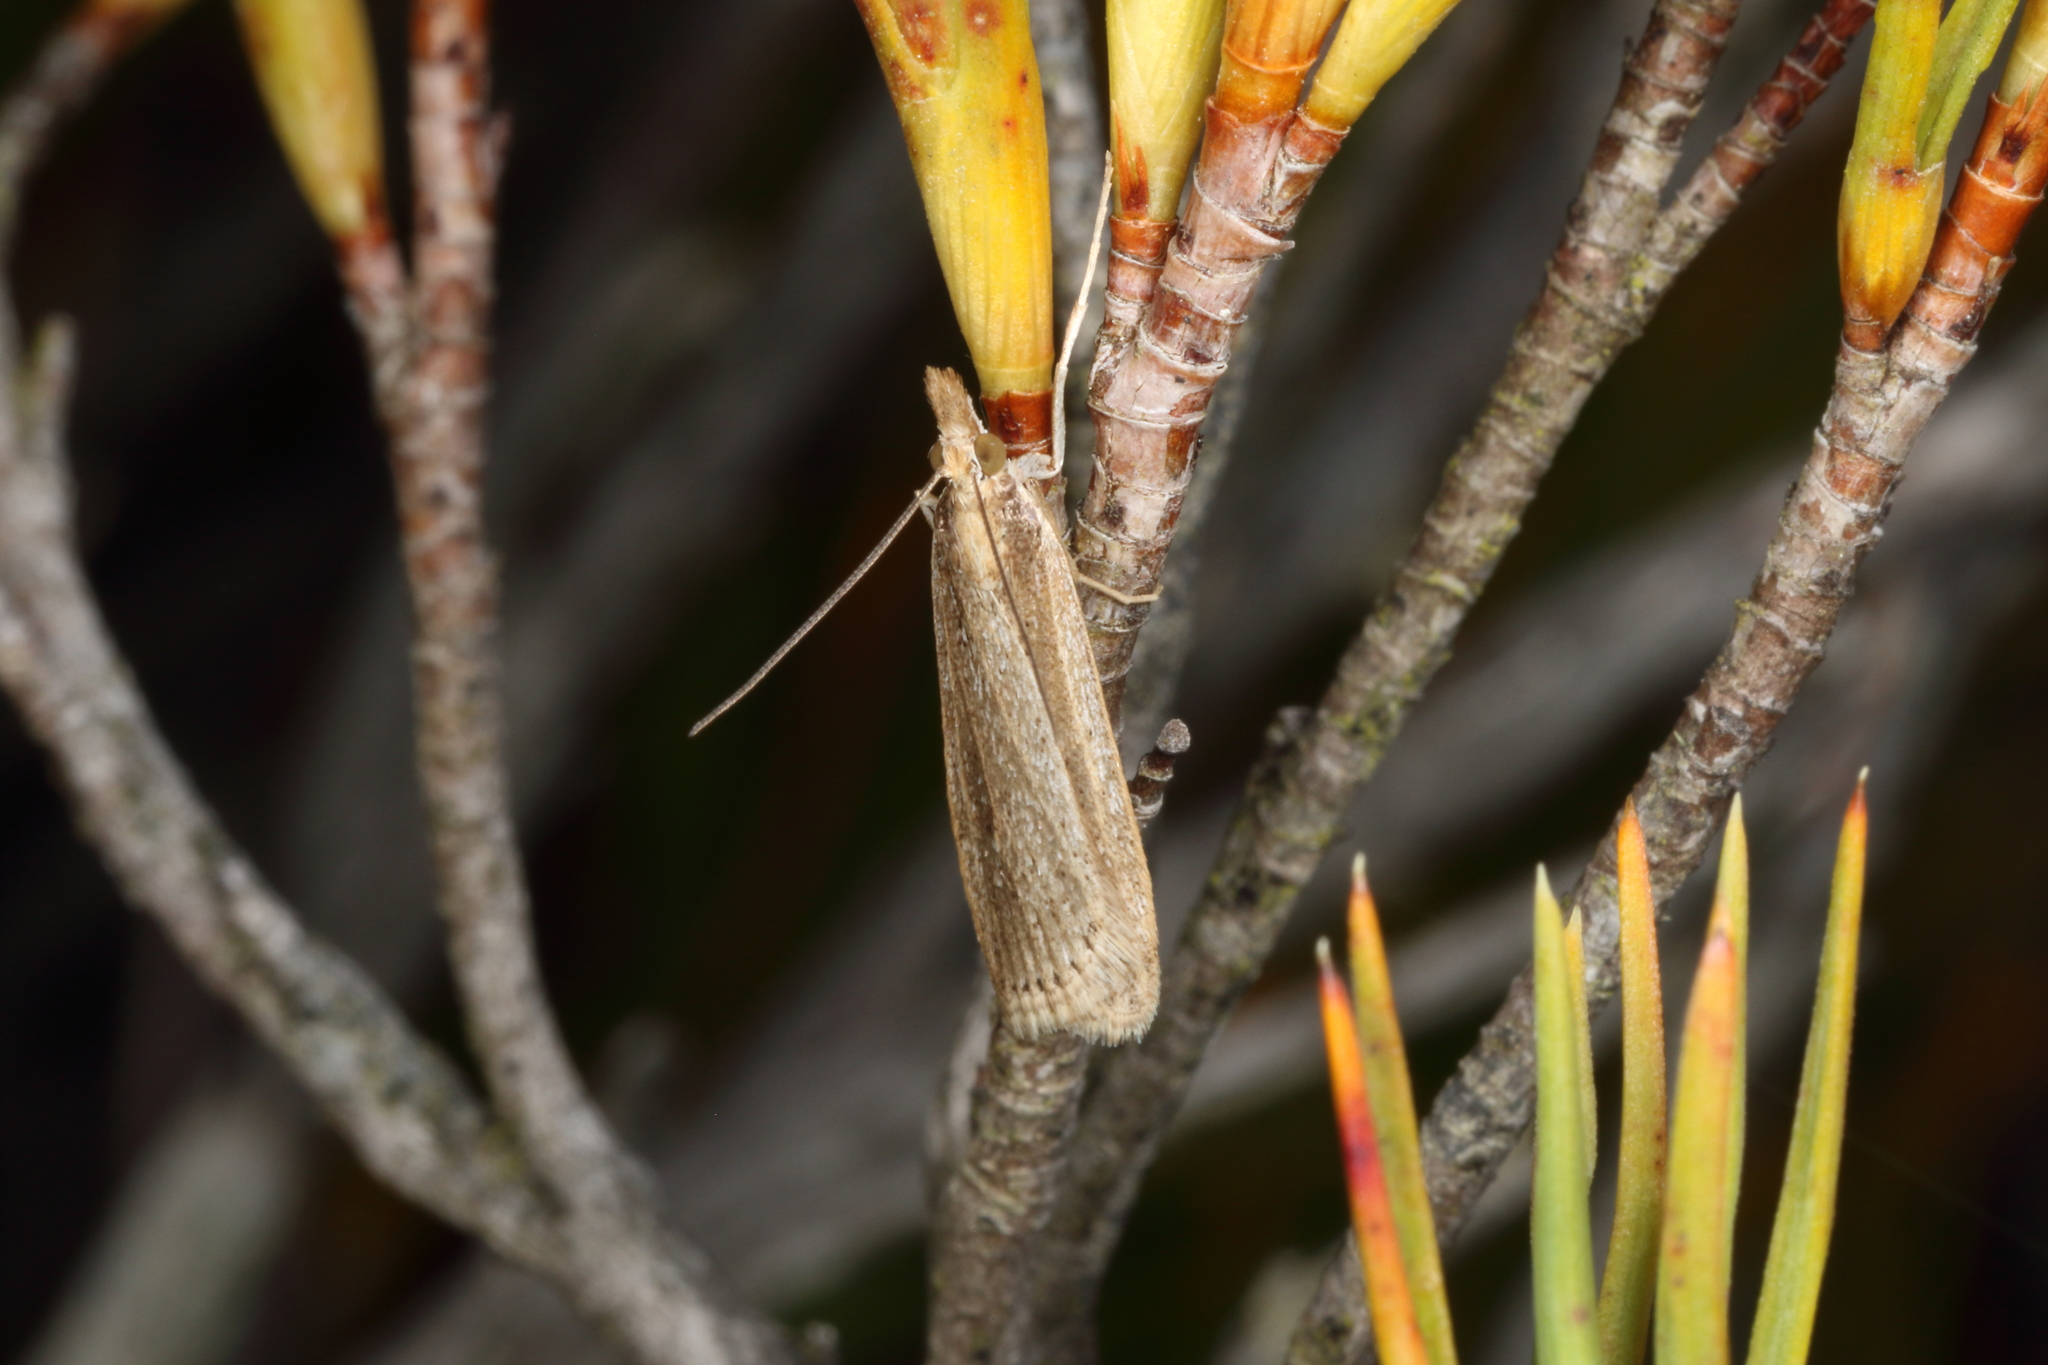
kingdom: Animalia
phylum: Arthropoda
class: Insecta
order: Lepidoptera
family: Crambidae
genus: Eudonia
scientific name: Eudonia sabulosella
